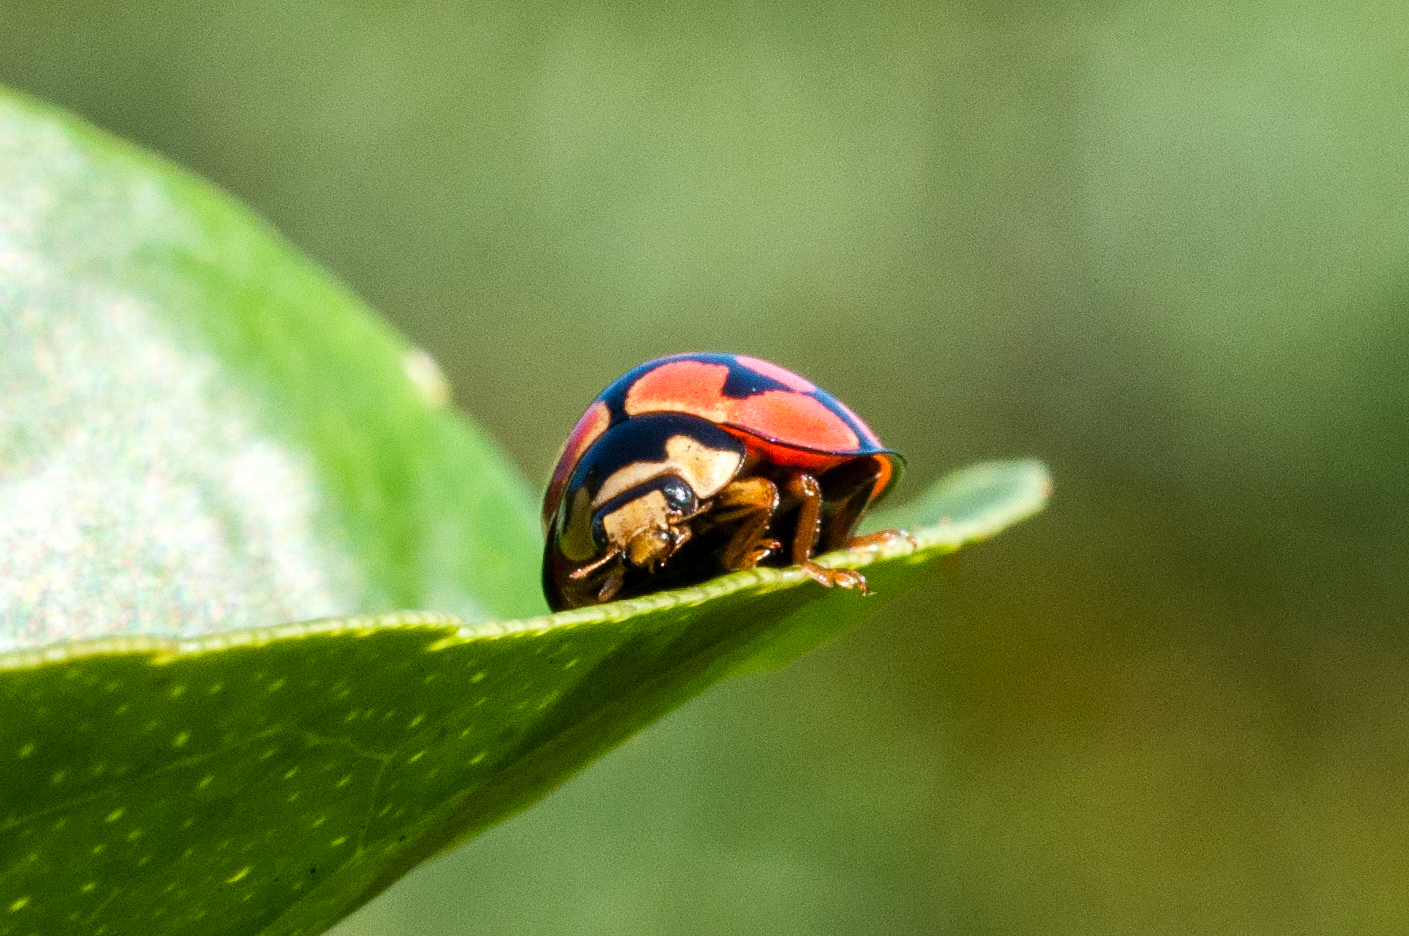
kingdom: Animalia
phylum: Arthropoda
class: Insecta
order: Coleoptera
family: Coccinellidae
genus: Cheilomenes
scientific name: Cheilomenes lunata
